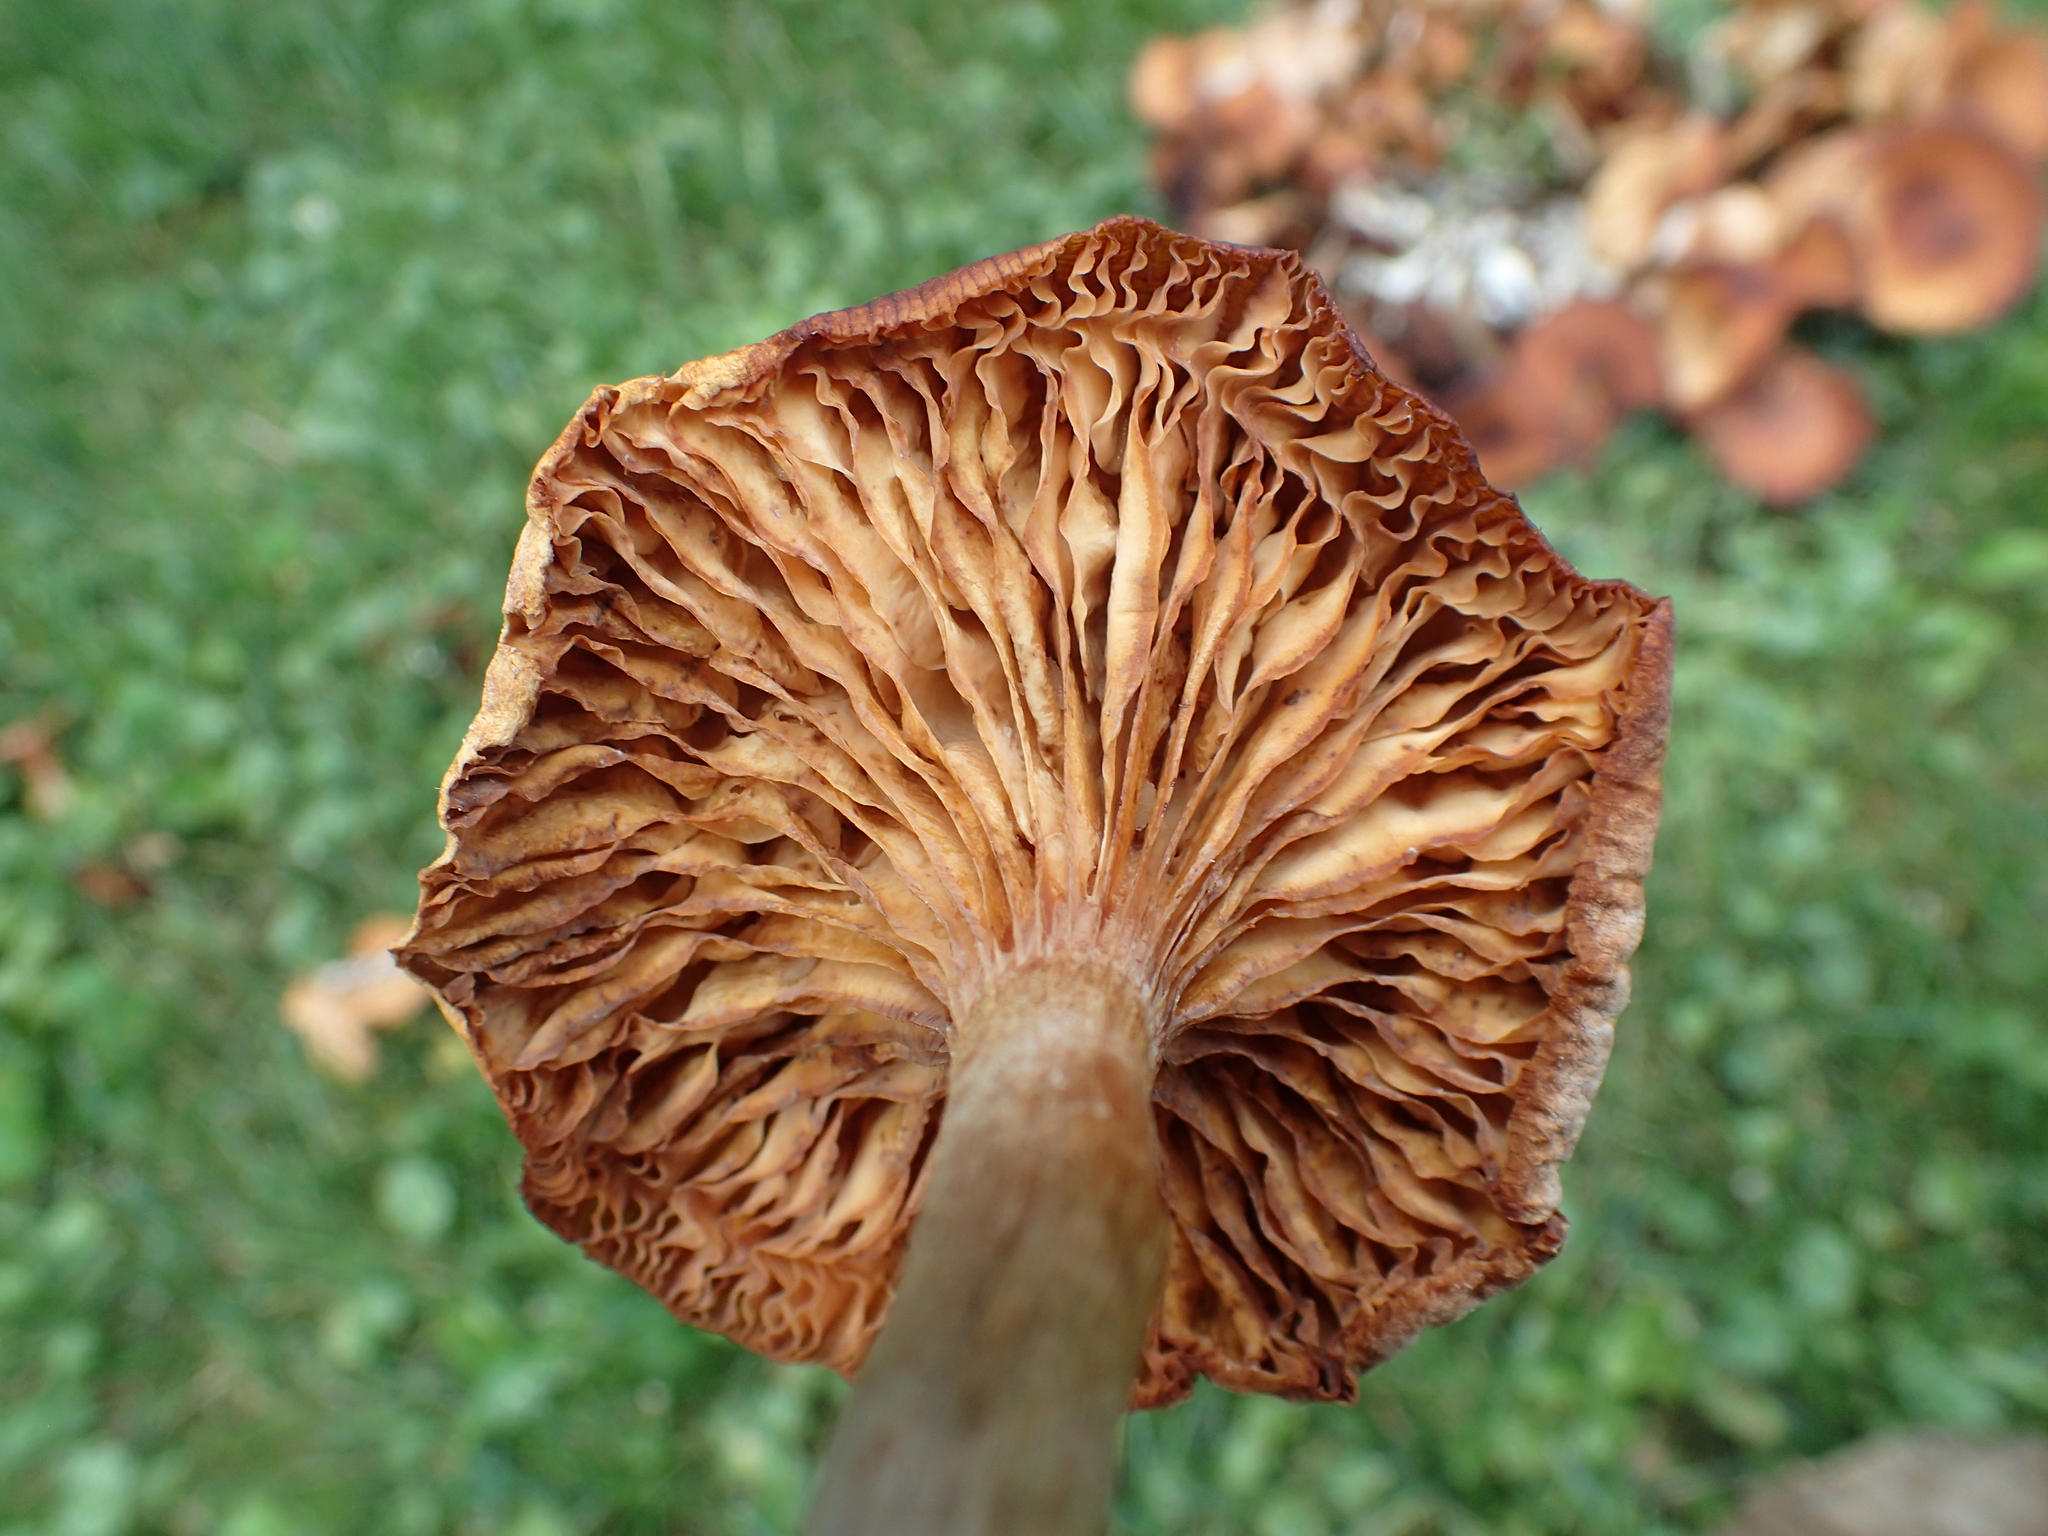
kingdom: Fungi
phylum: Basidiomycota
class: Agaricomycetes
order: Agaricales
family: Physalacriaceae
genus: Desarmillaria
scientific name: Desarmillaria caespitosa
